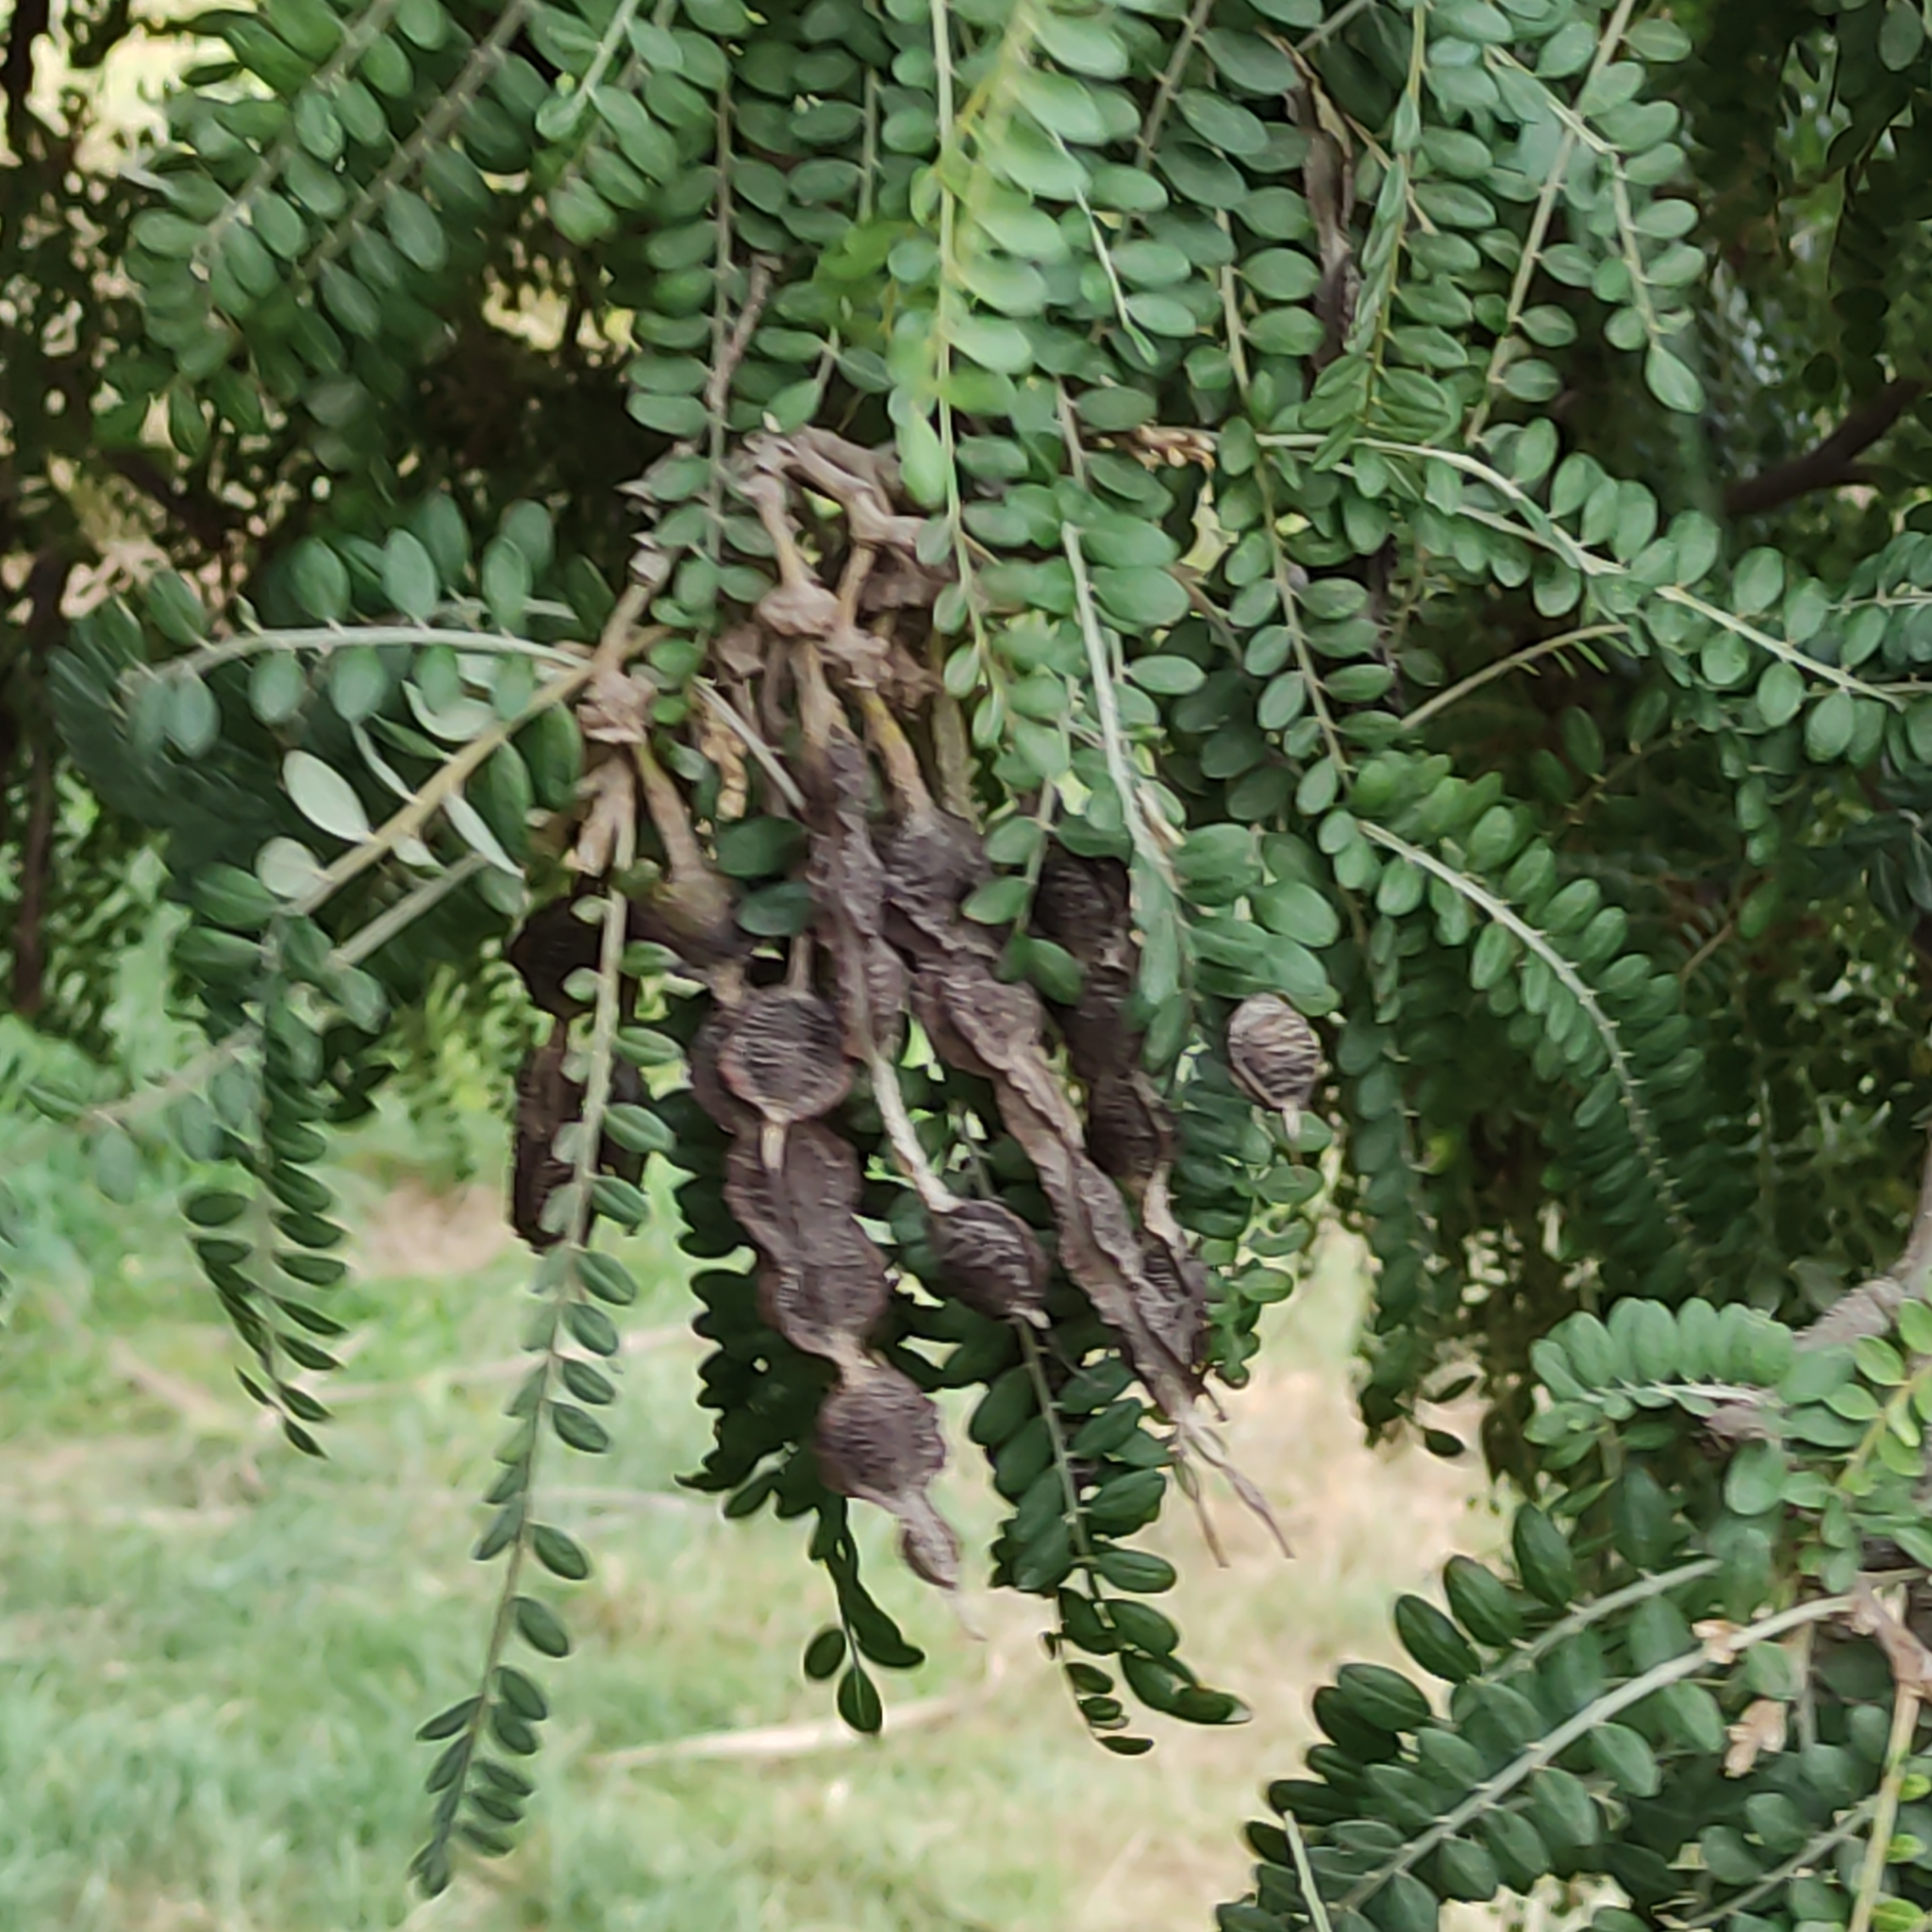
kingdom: Plantae
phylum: Tracheophyta
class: Magnoliopsida
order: Fabales
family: Fabaceae
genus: Sophora
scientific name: Sophora microphylla
